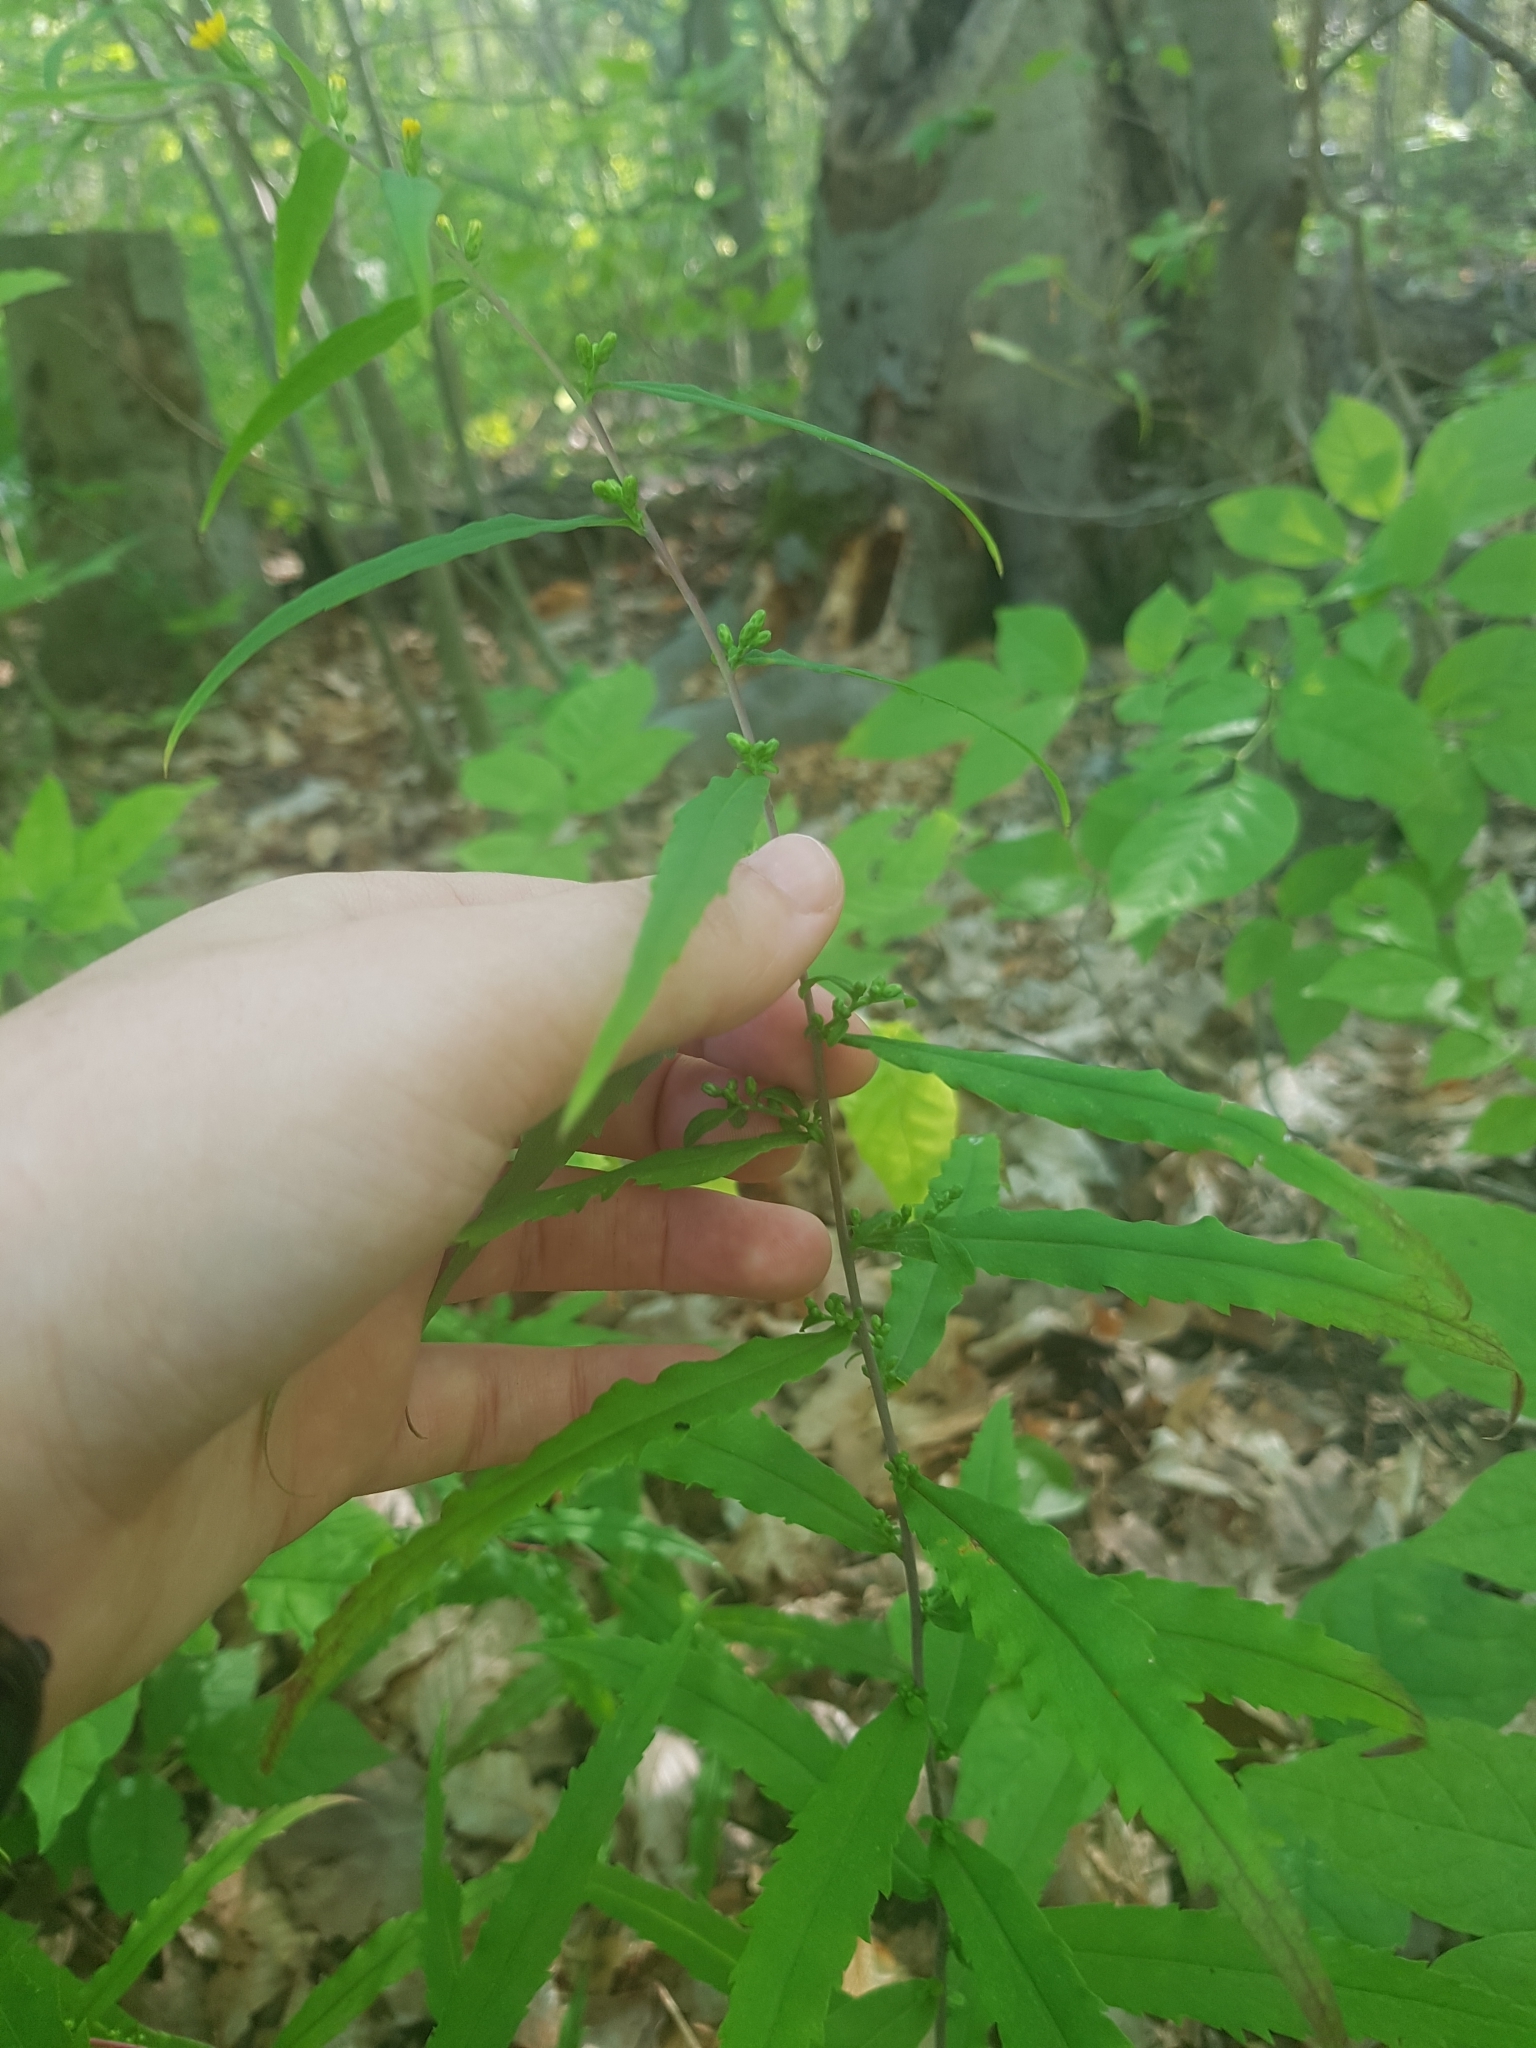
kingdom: Plantae
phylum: Tracheophyta
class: Magnoliopsida
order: Asterales
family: Asteraceae
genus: Solidago
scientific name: Solidago caesia
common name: Woodland goldenrod
